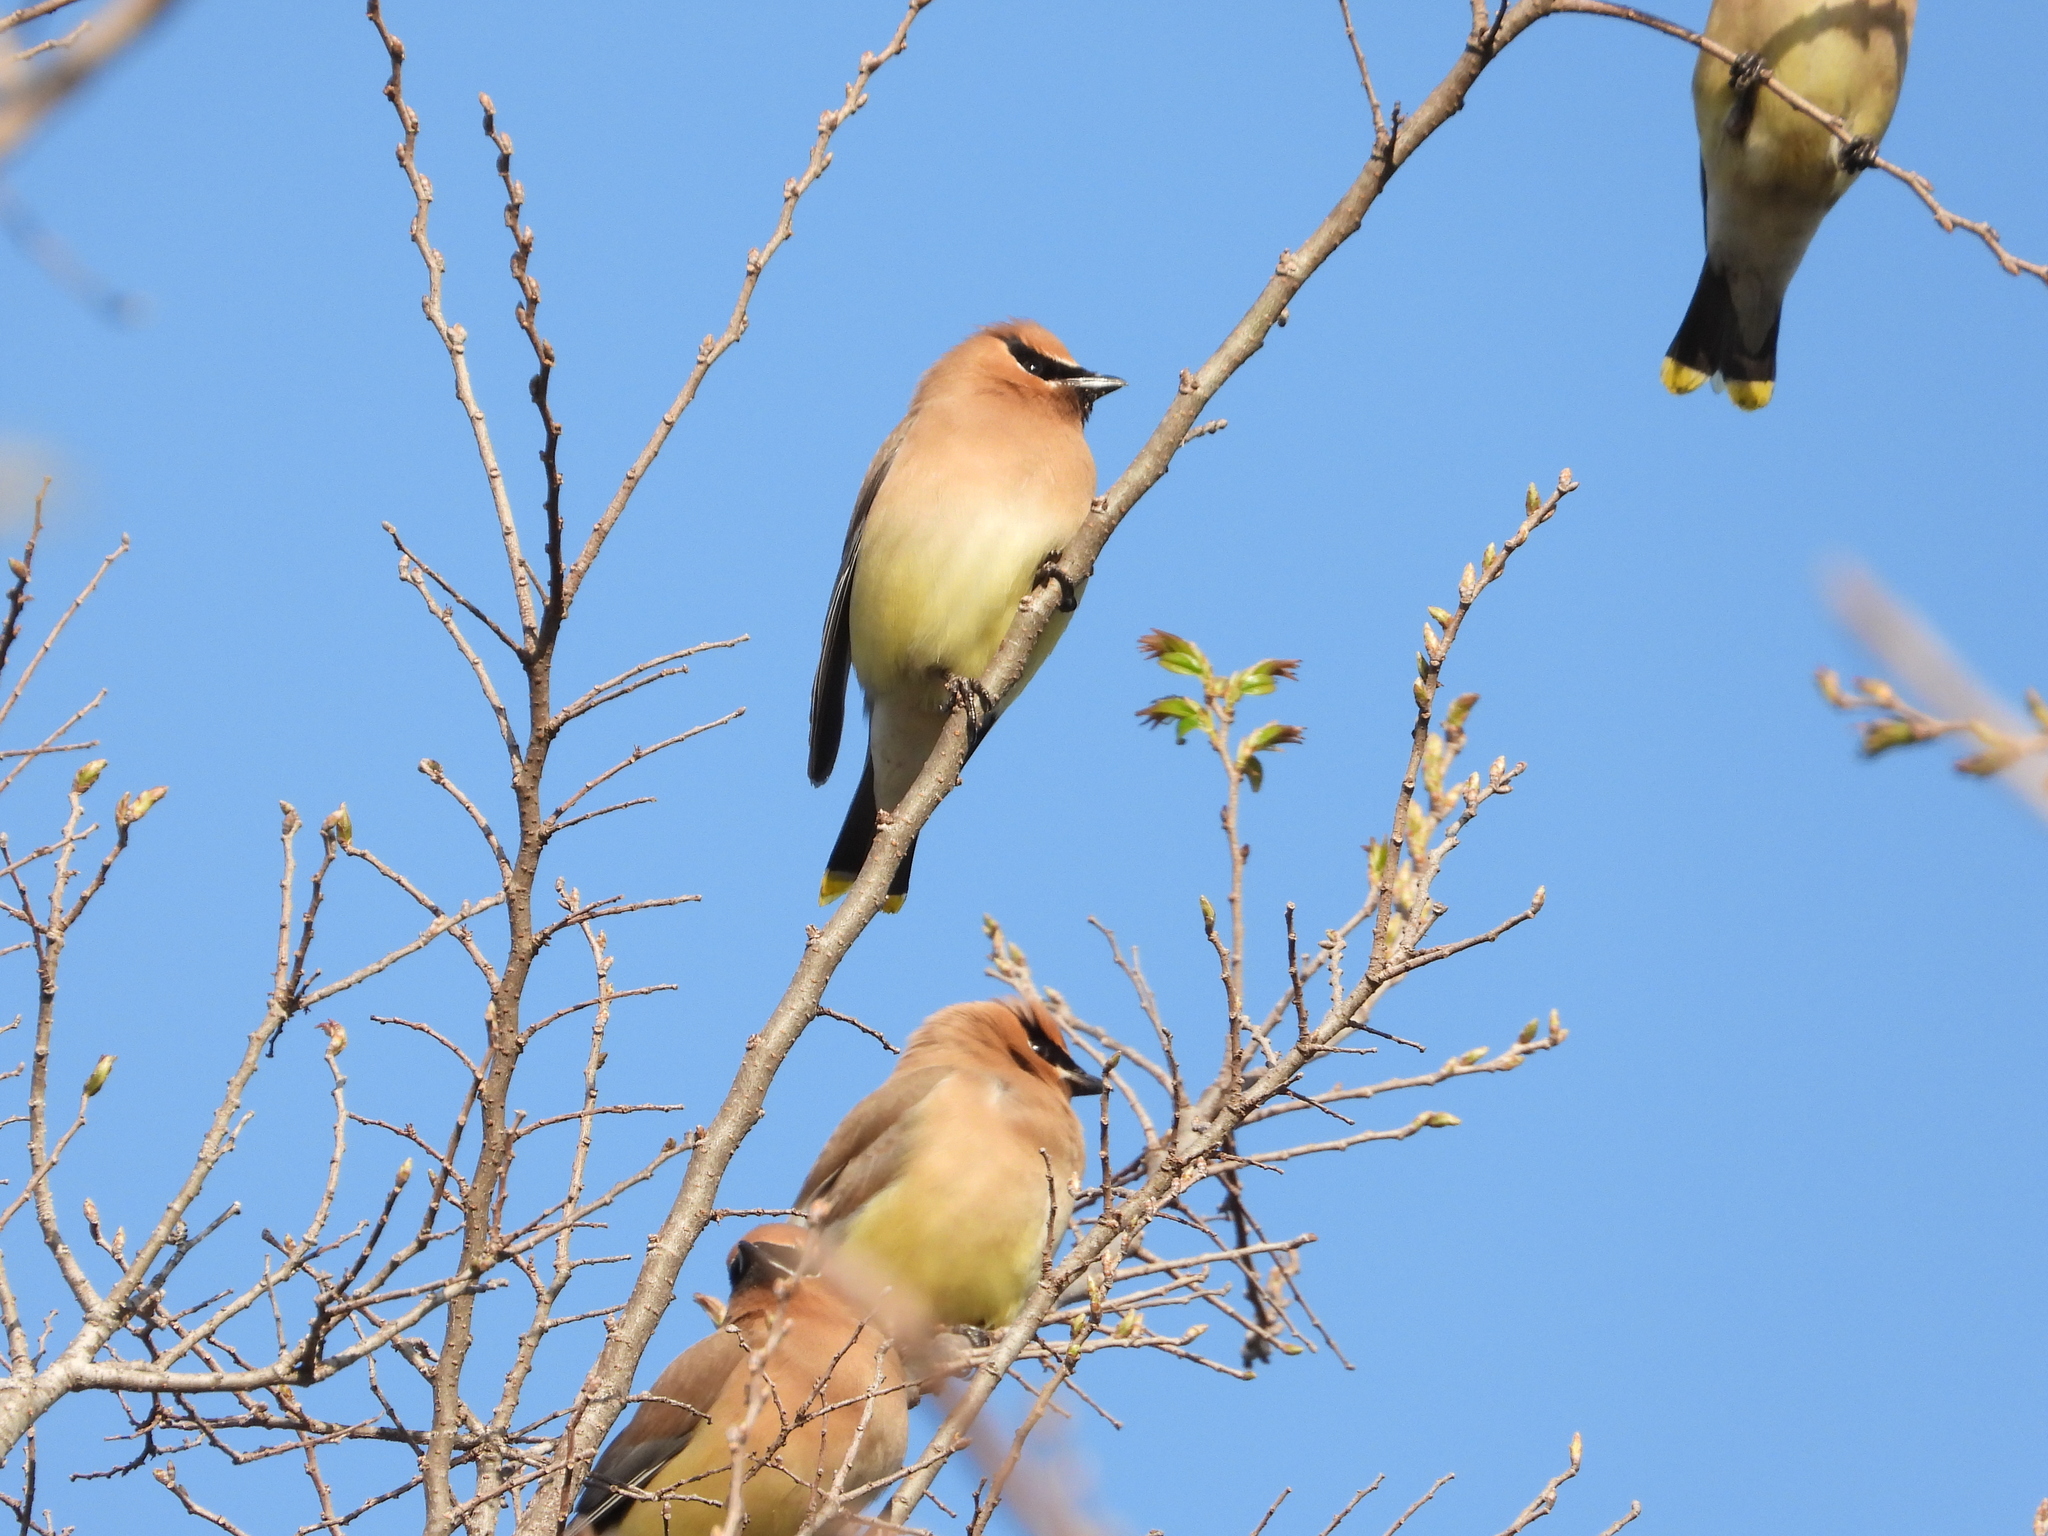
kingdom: Animalia
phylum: Chordata
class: Aves
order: Passeriformes
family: Bombycillidae
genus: Bombycilla
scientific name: Bombycilla cedrorum
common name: Cedar waxwing
